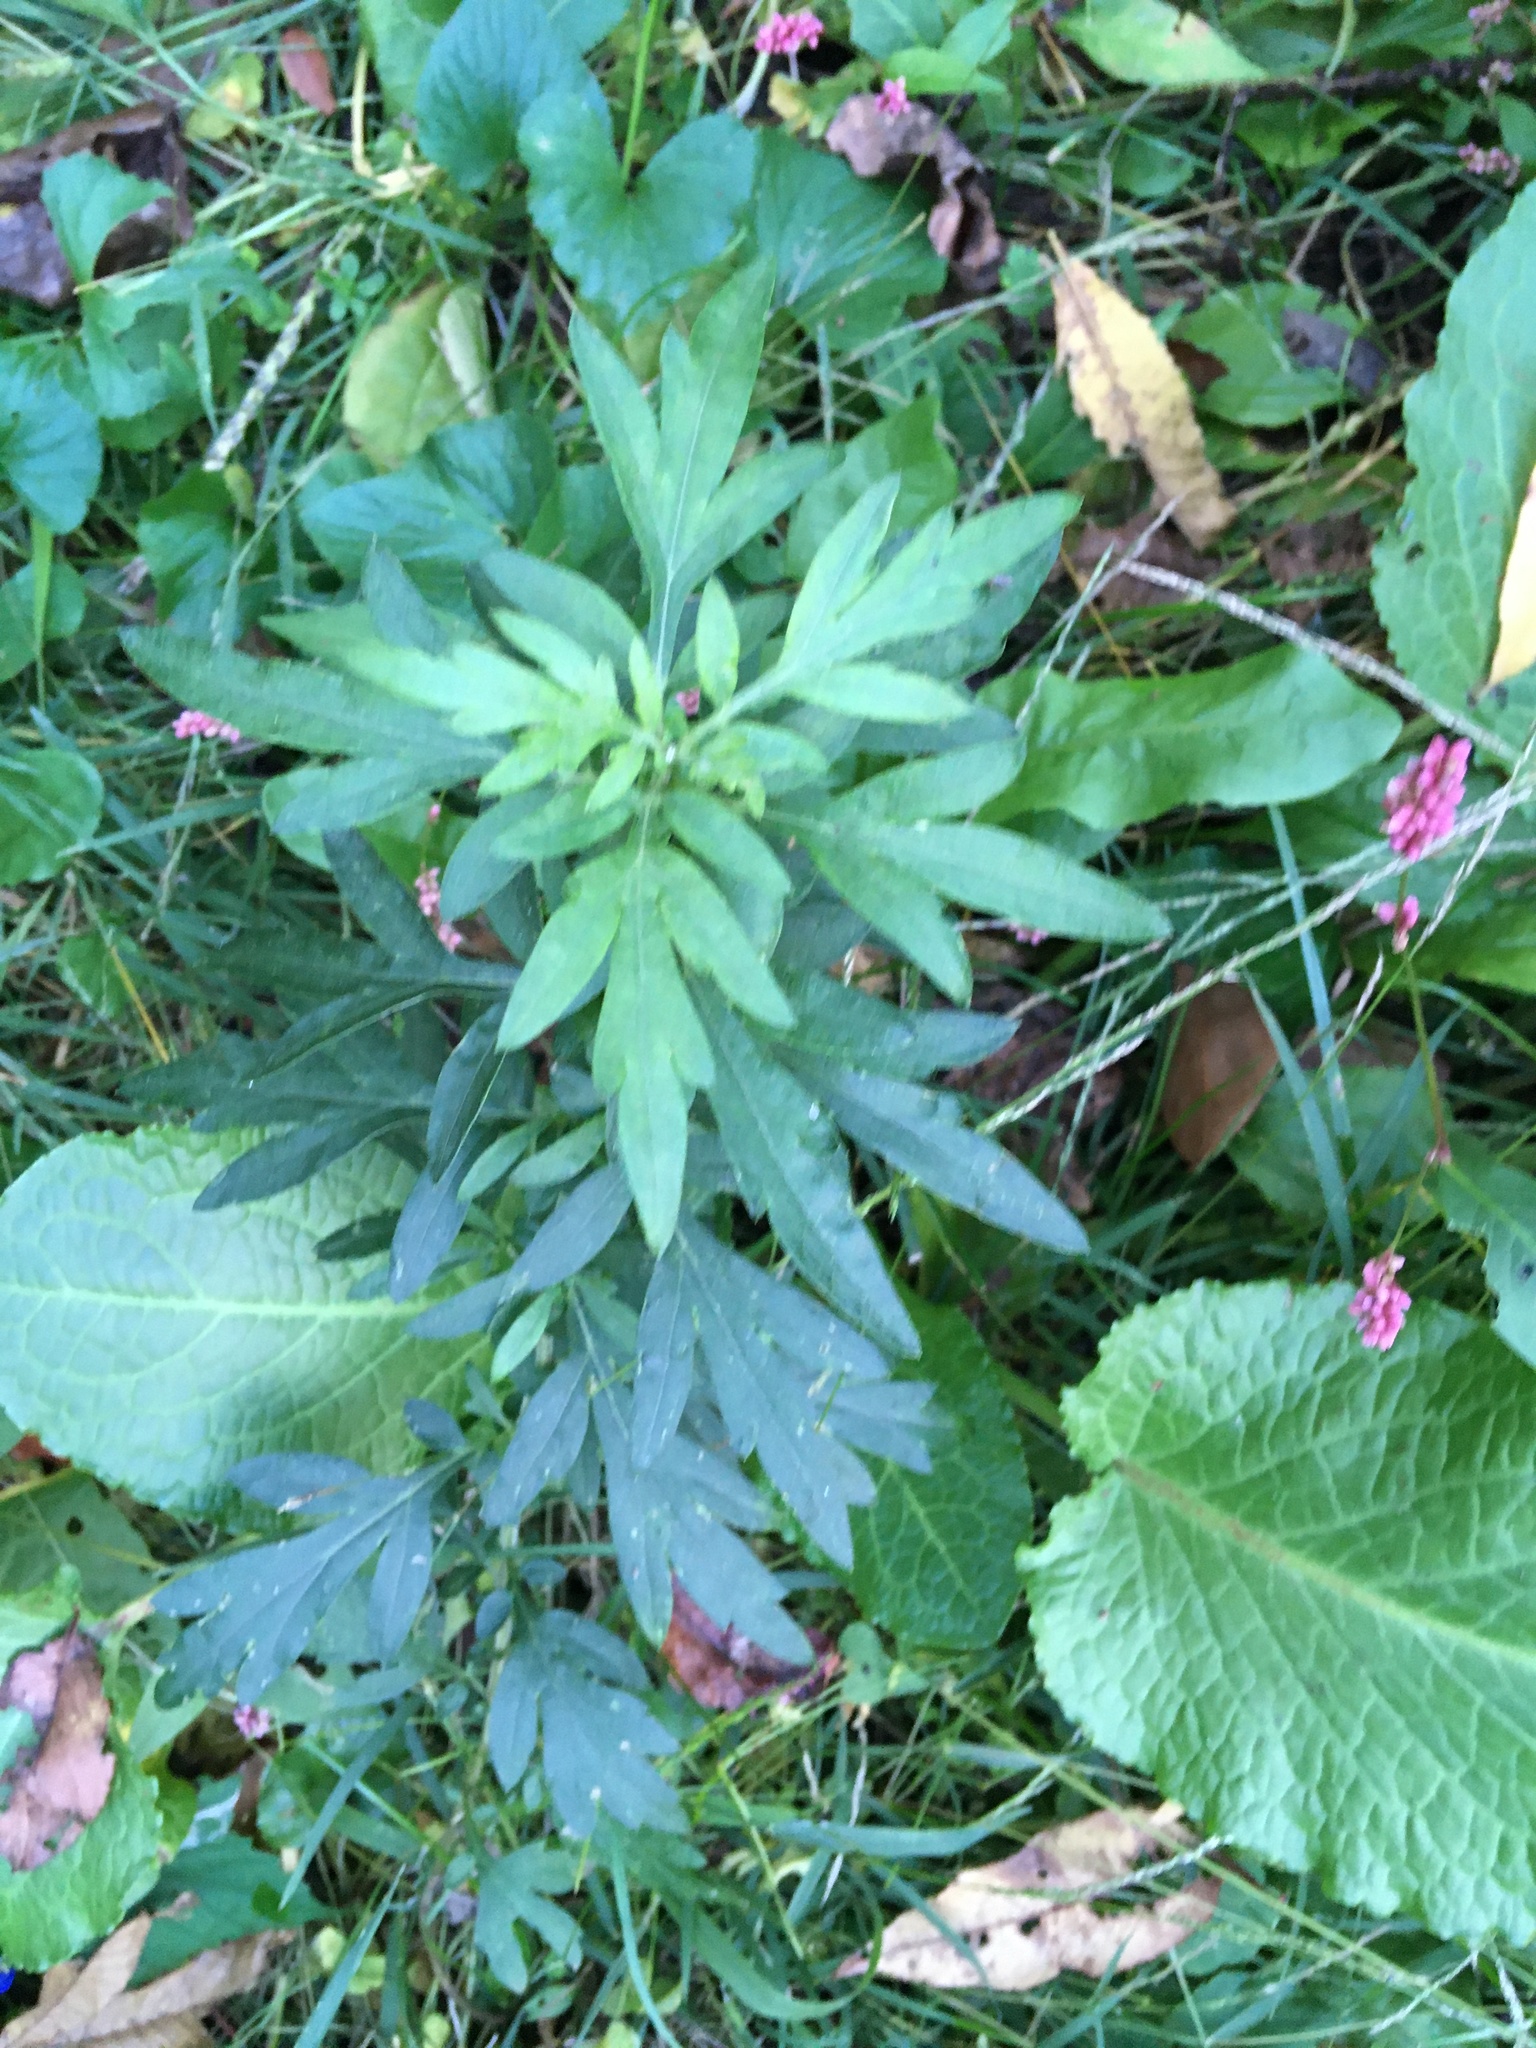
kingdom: Plantae
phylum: Tracheophyta
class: Magnoliopsida
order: Asterales
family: Asteraceae
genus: Artemisia
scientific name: Artemisia vulgaris
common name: Mugwort
